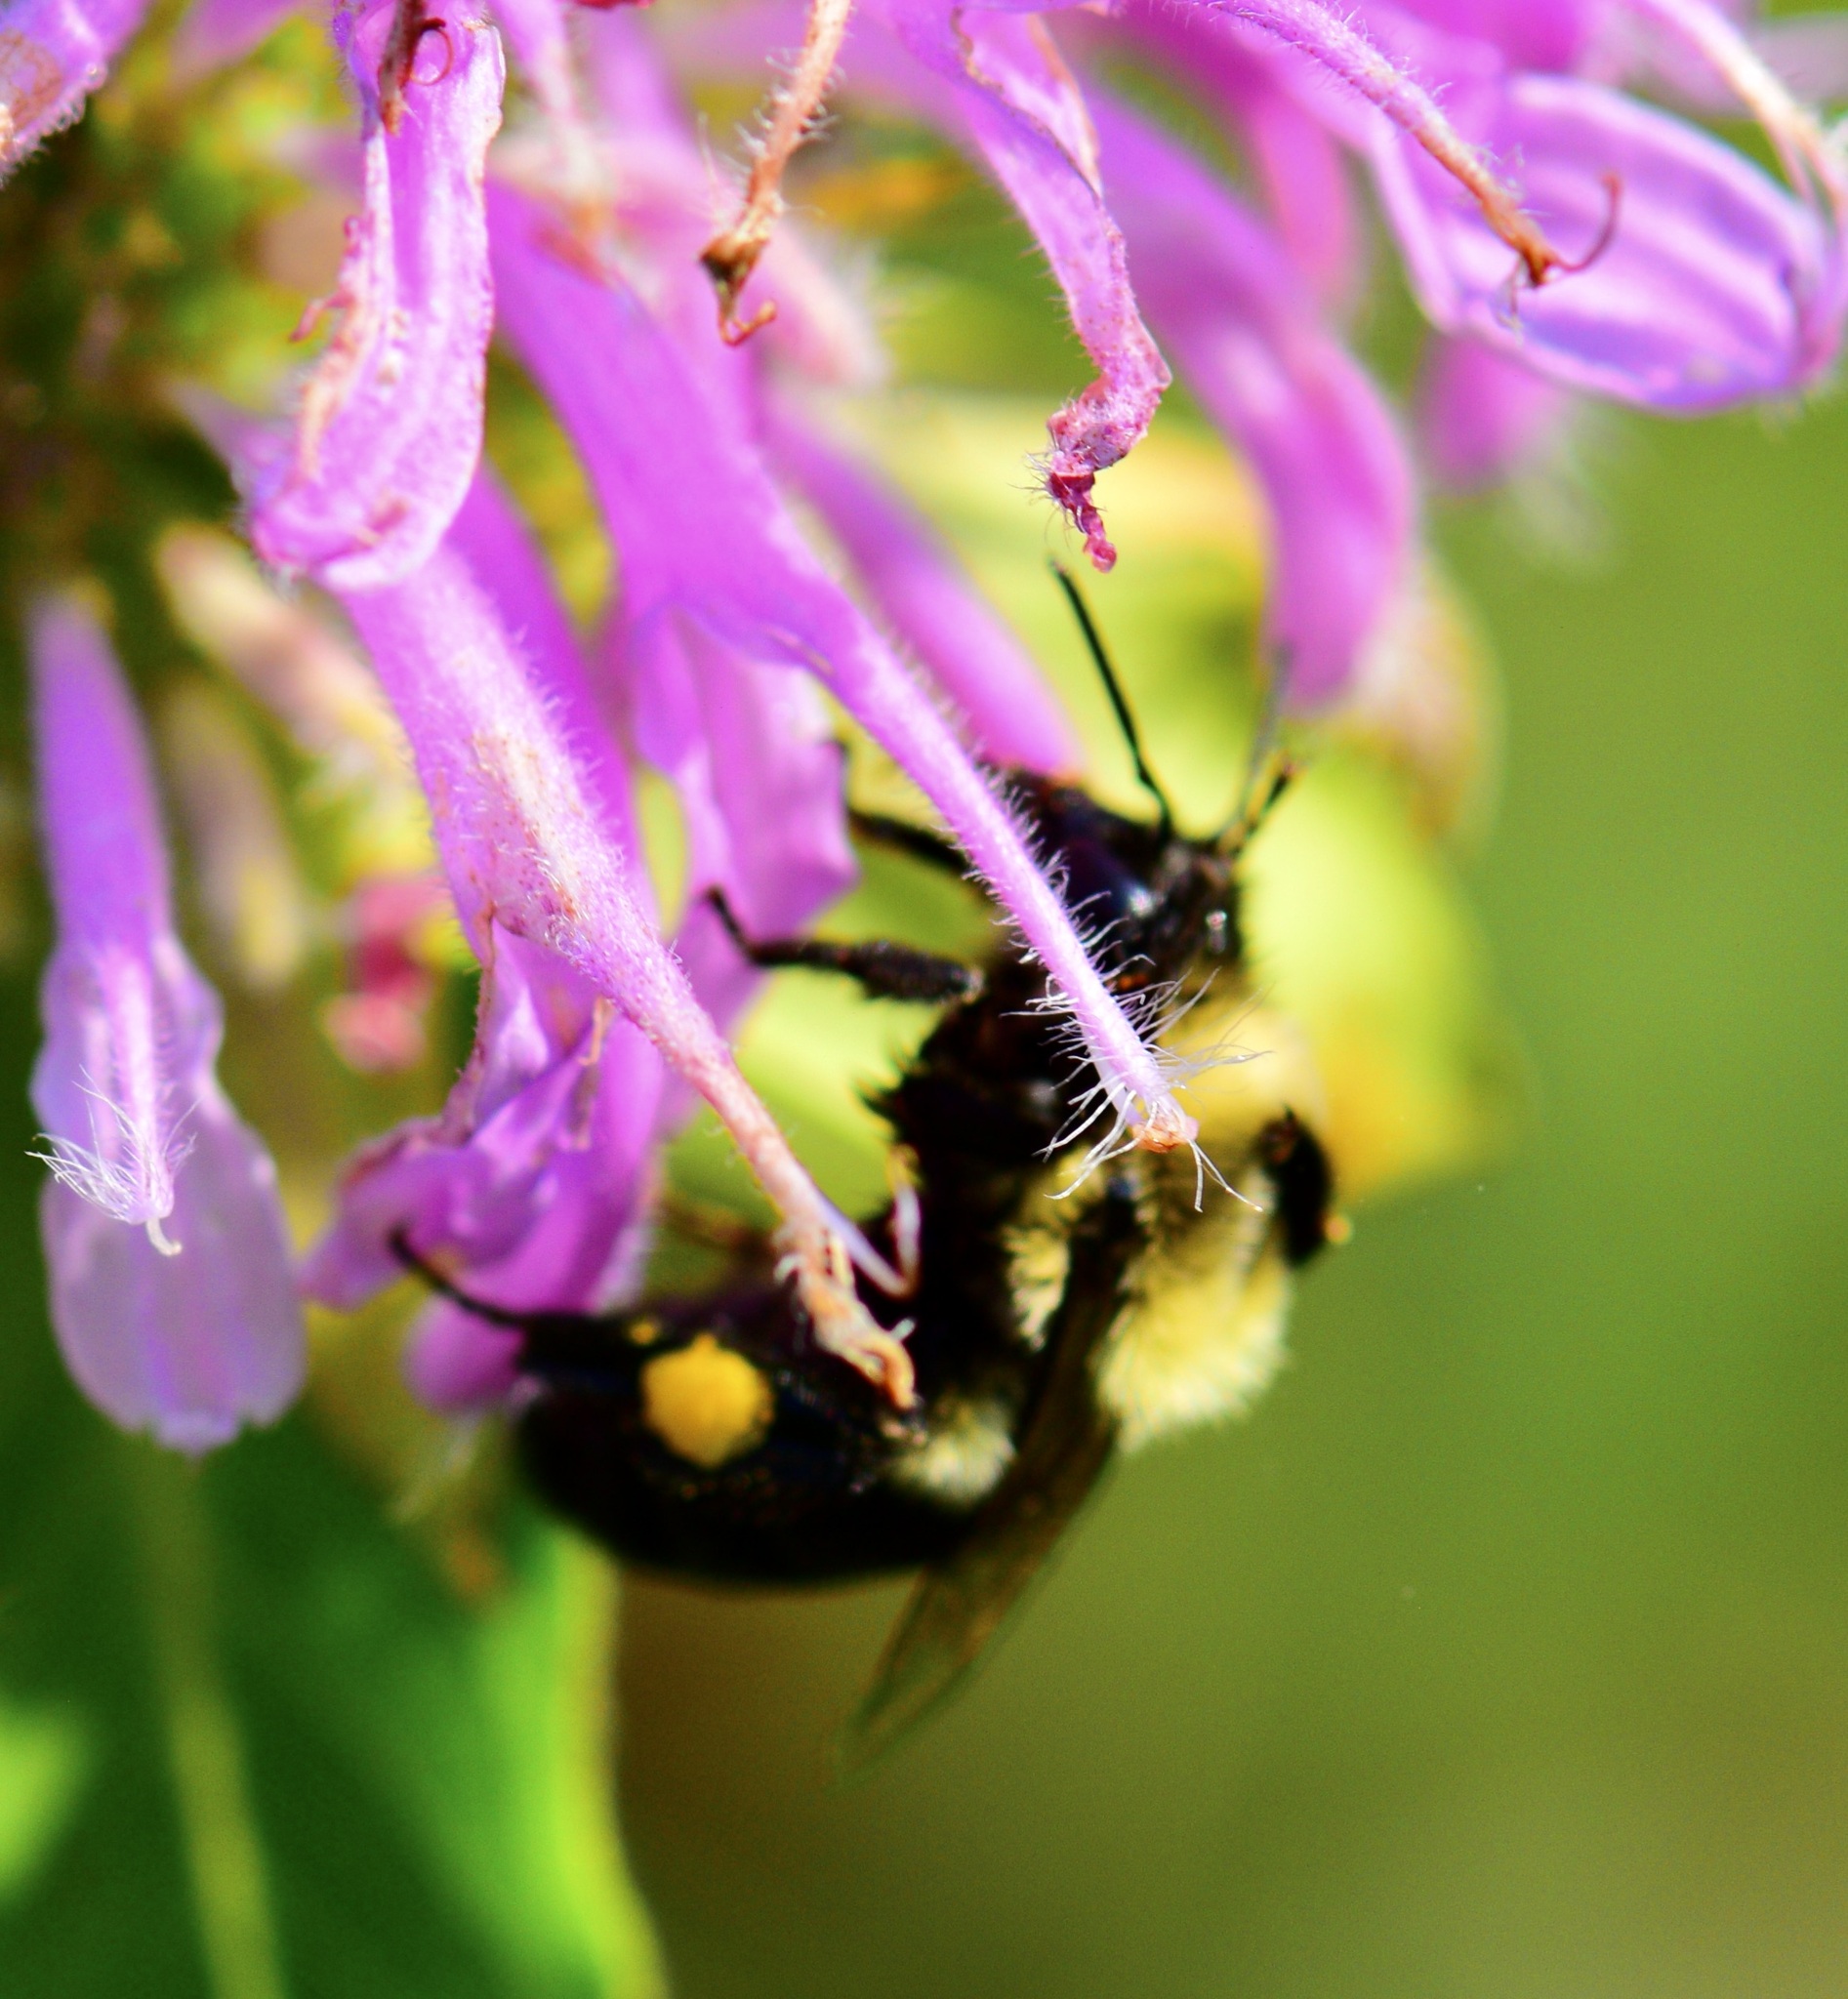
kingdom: Animalia
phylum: Arthropoda
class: Insecta
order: Hymenoptera
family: Apidae
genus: Bombus
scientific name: Bombus impatiens
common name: Common eastern bumble bee
